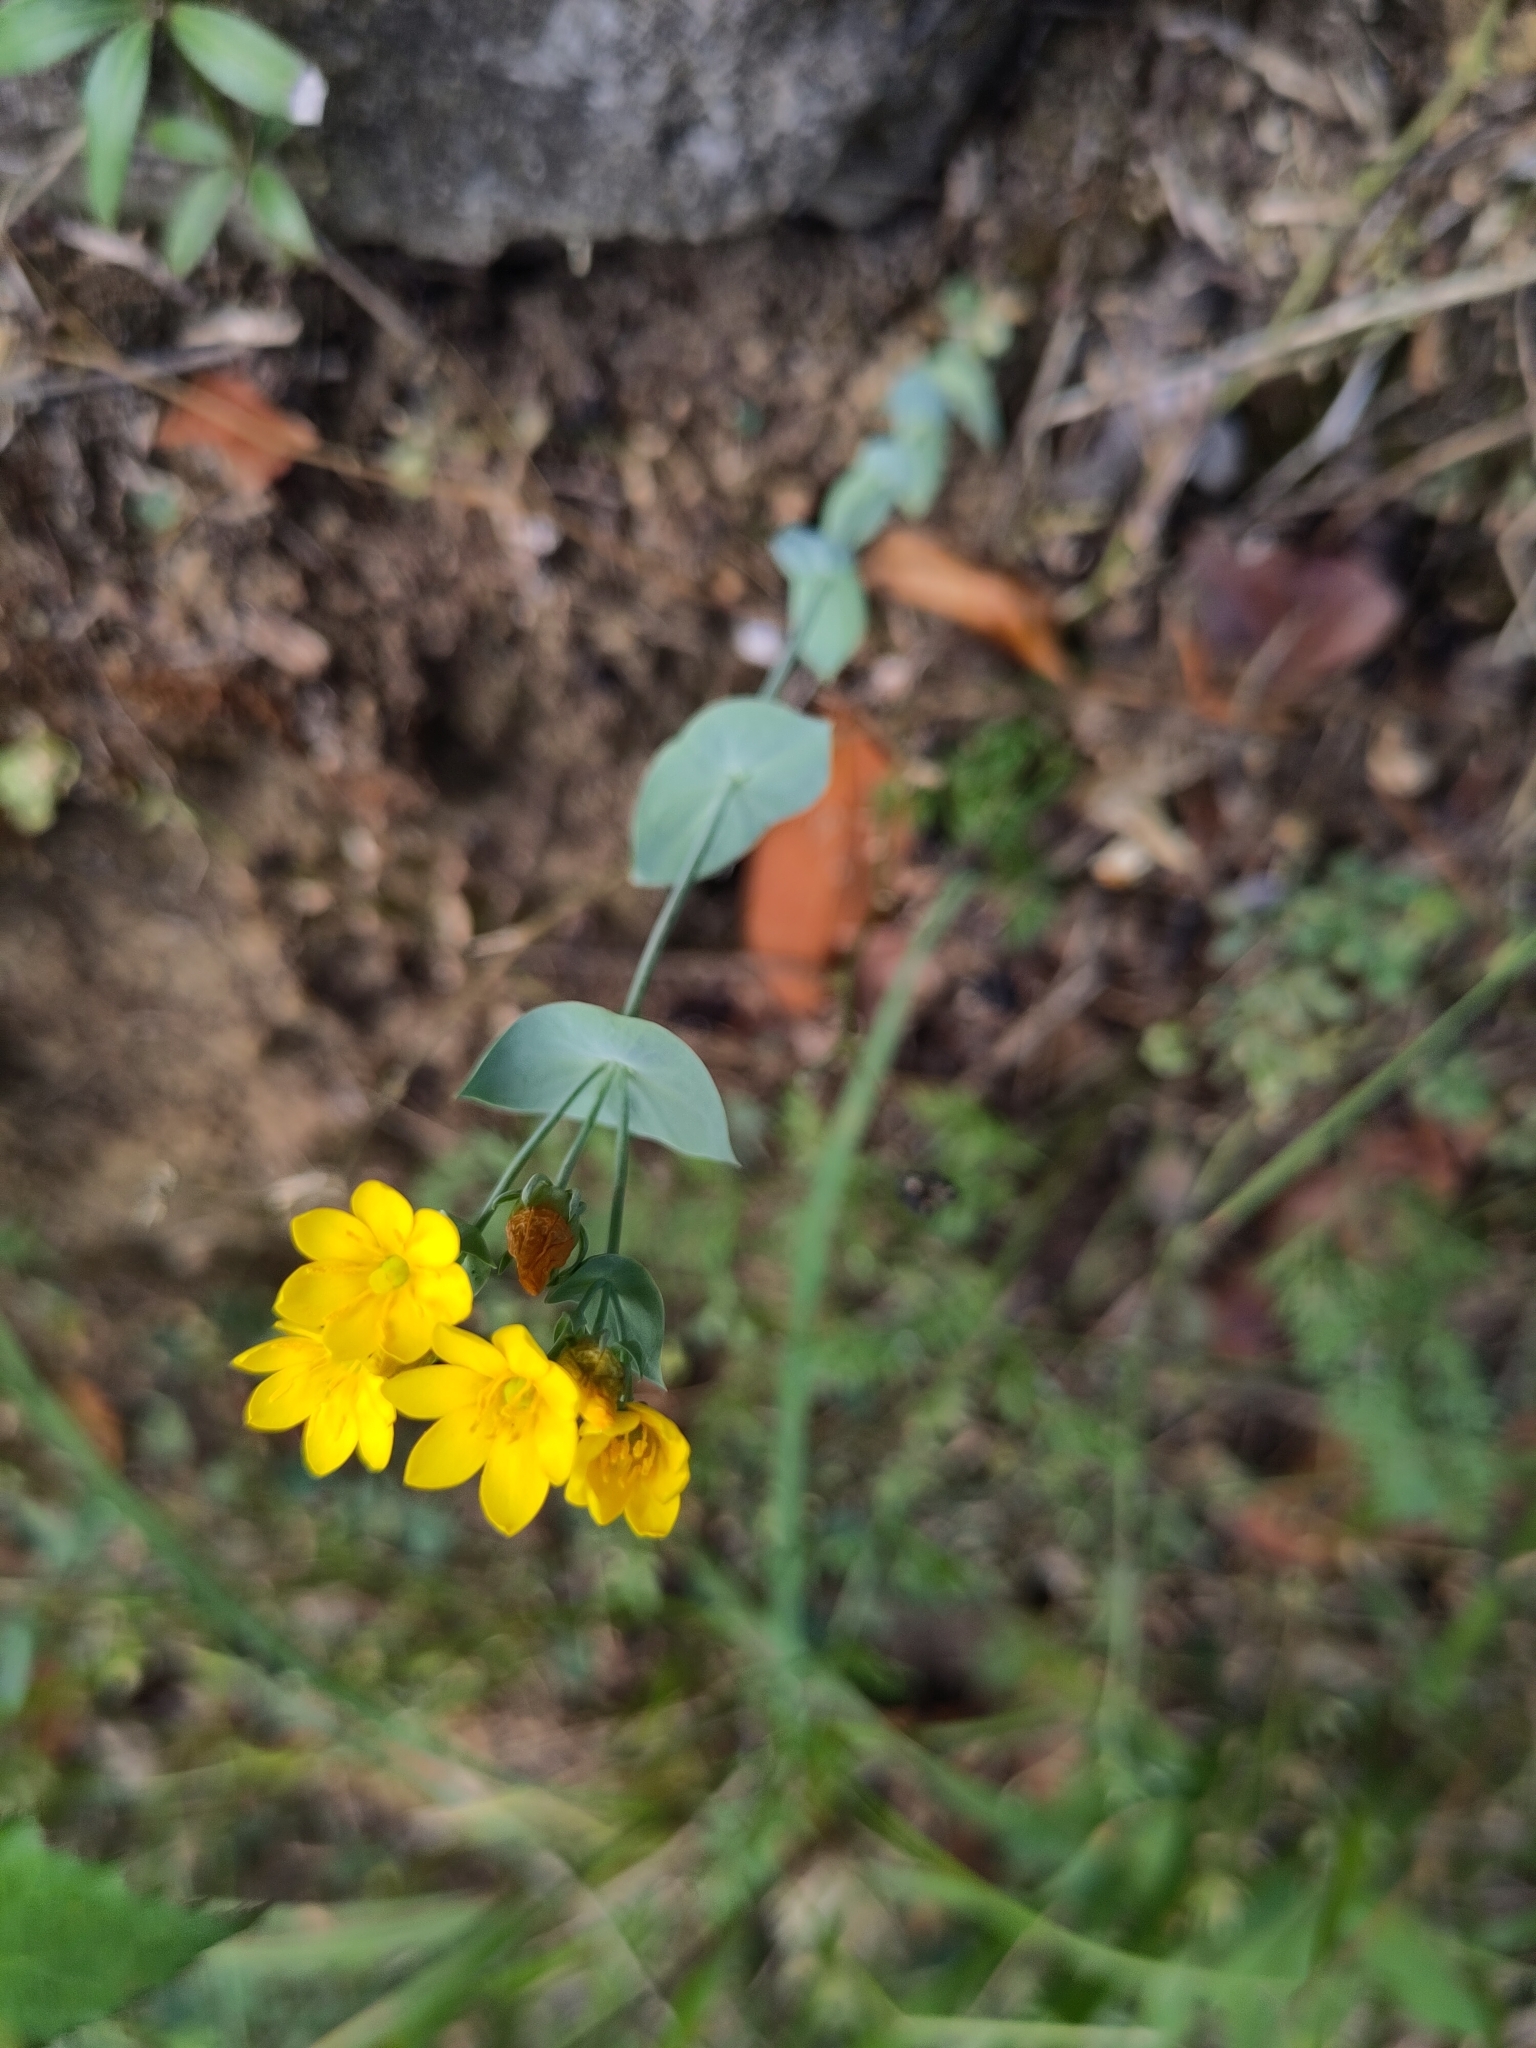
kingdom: Plantae
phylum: Tracheophyta
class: Magnoliopsida
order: Gentianales
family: Gentianaceae
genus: Blackstonia
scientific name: Blackstonia perfoliata
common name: Yellow-wort
